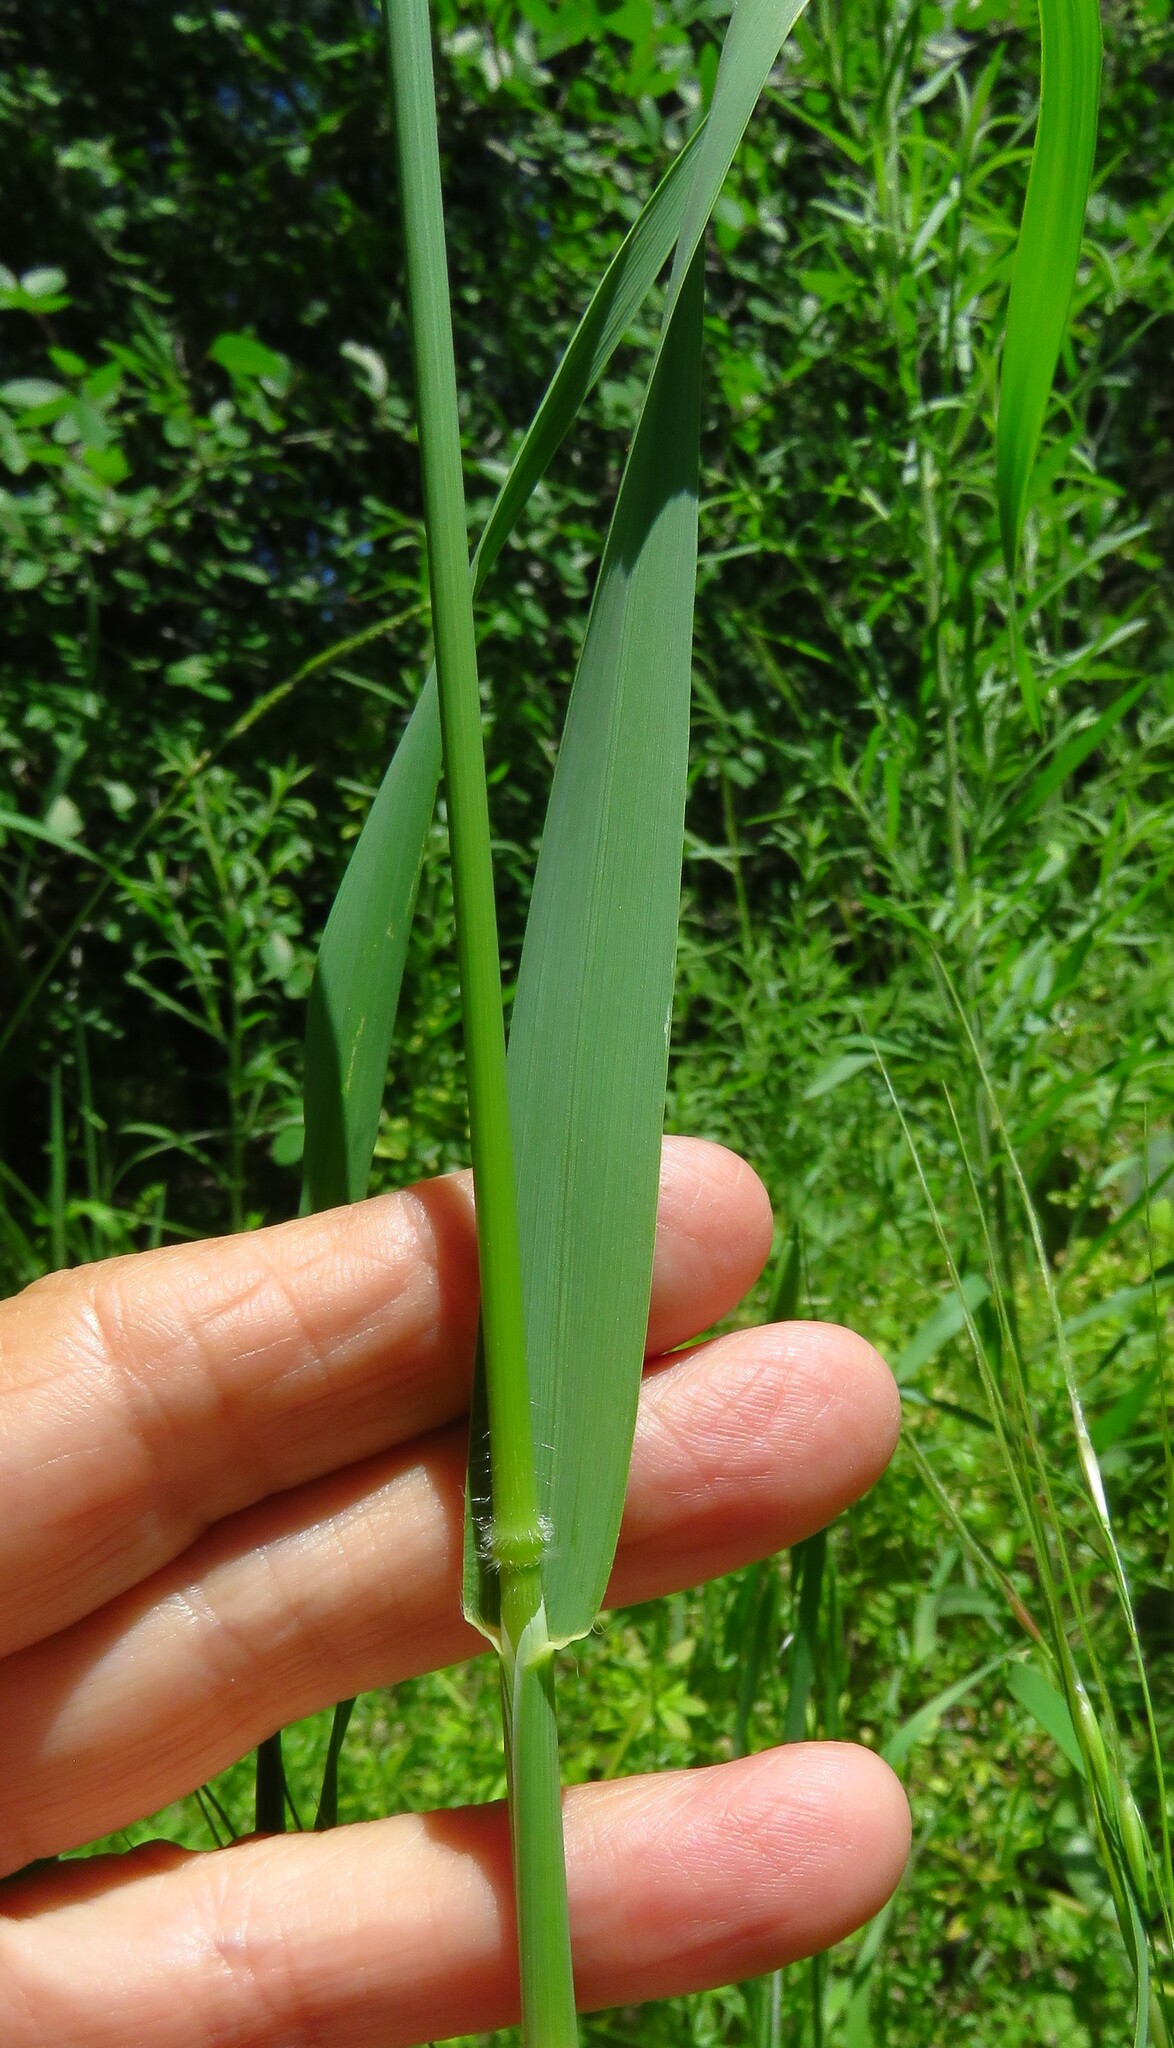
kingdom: Plantae
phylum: Tracheophyta
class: Liliopsida
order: Poales
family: Poaceae
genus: Avena
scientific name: Avena fatua
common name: Wild oat
